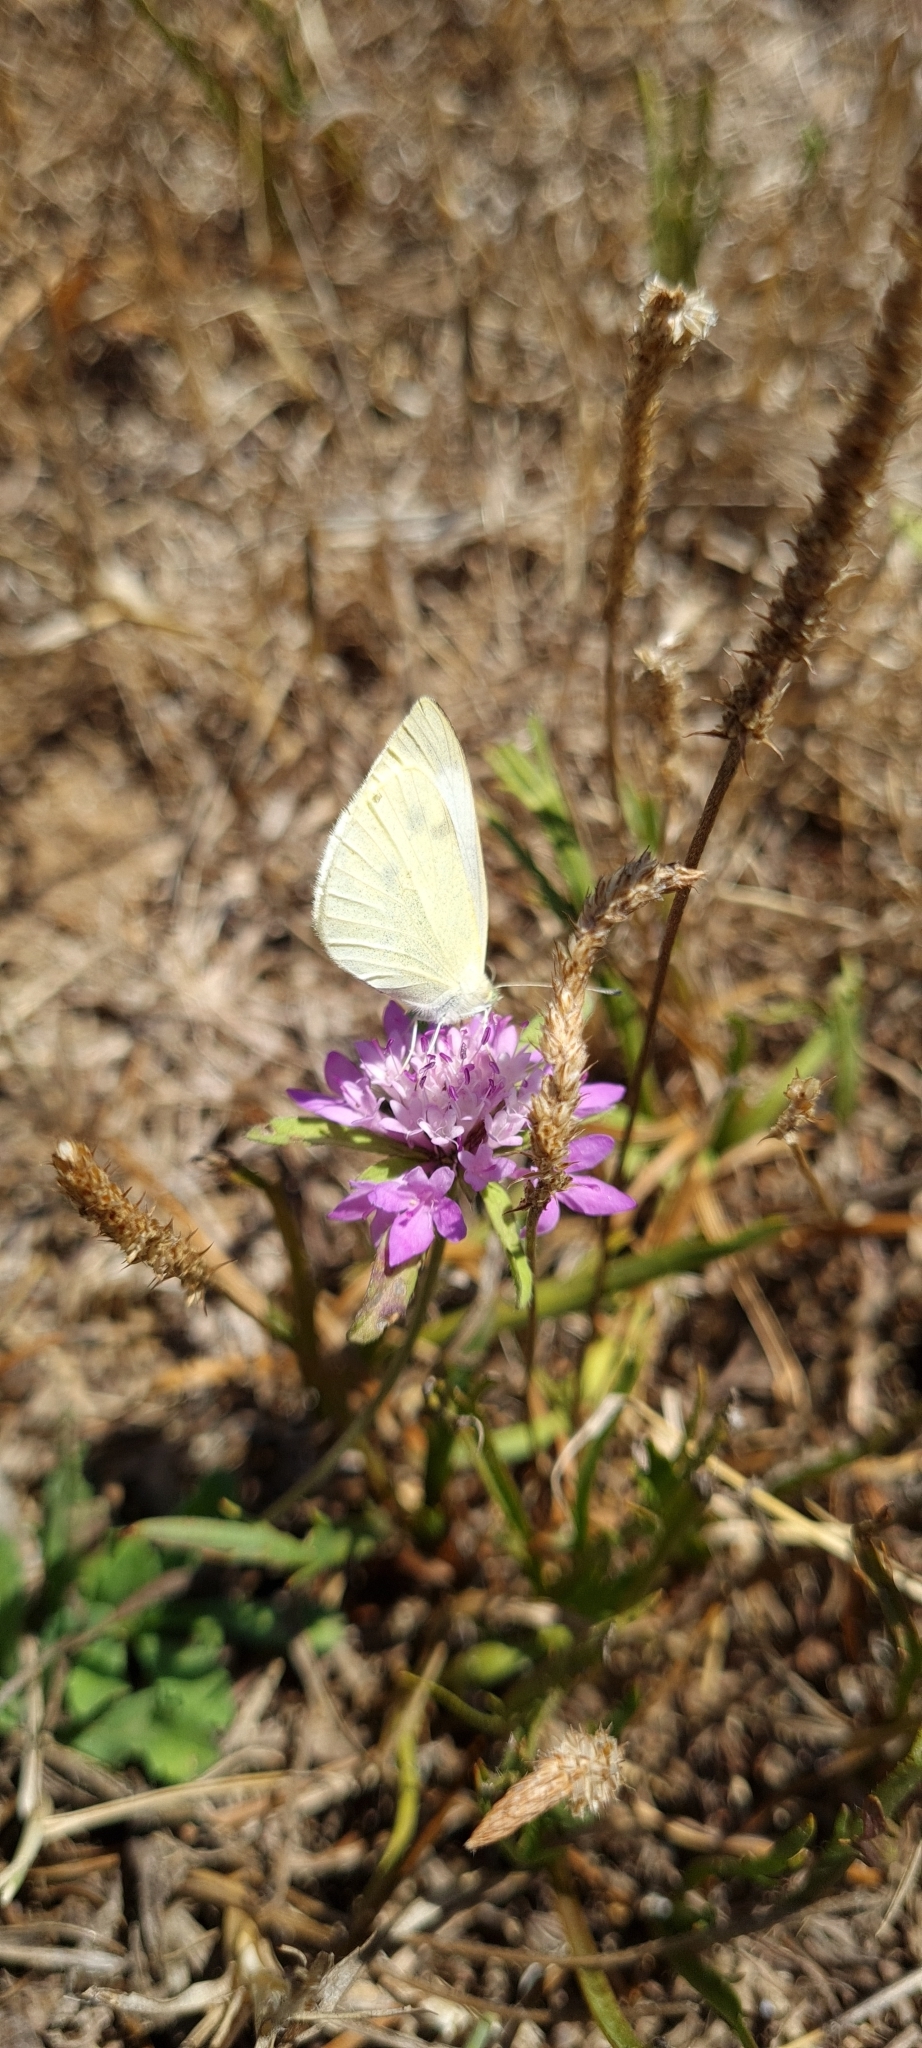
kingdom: Animalia
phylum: Arthropoda
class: Insecta
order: Lepidoptera
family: Pieridae
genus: Pieris
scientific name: Pieris rapae
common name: Small white
